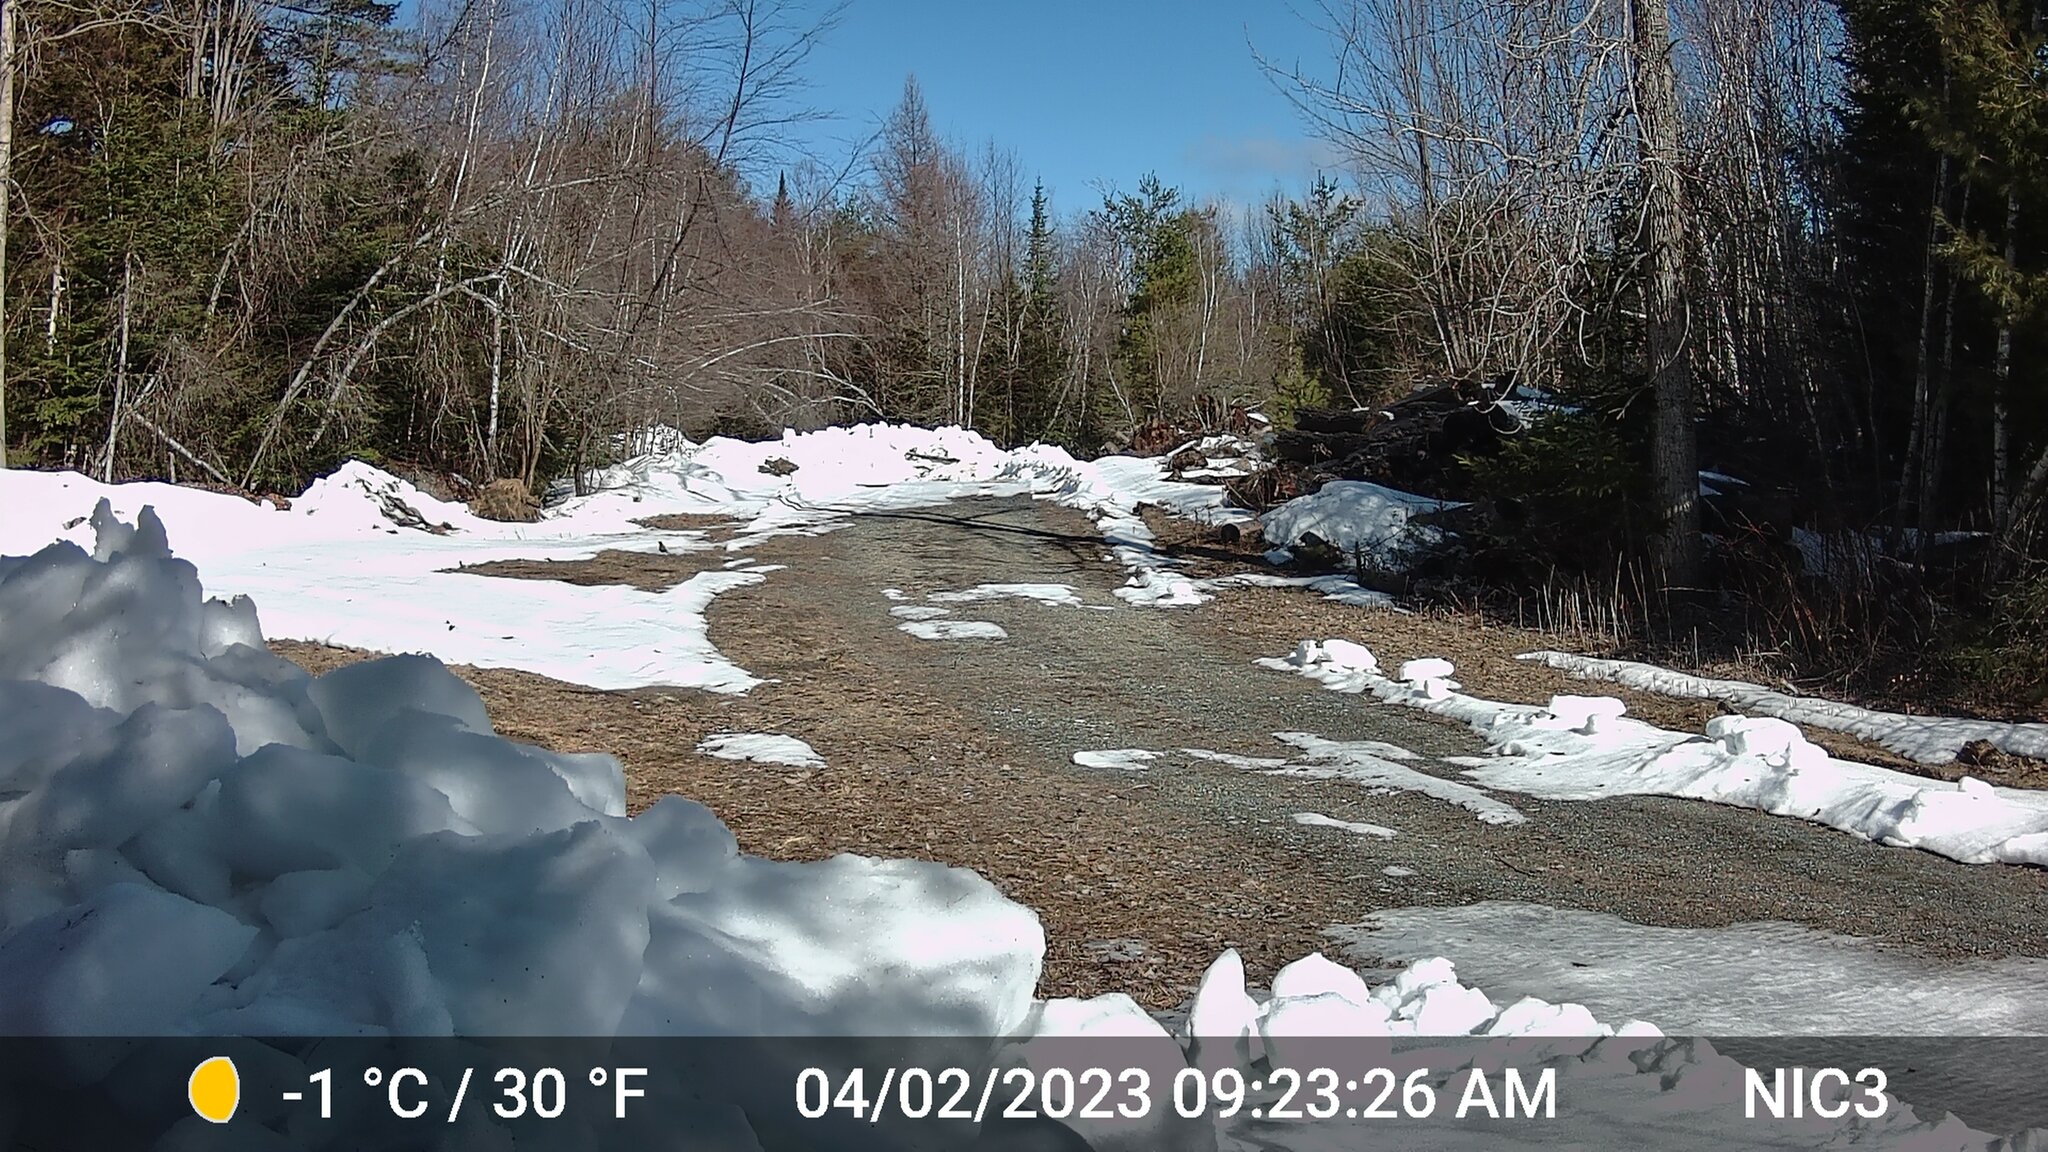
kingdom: Animalia
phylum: Chordata
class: Aves
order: Passeriformes
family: Turdidae
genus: Turdus
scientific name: Turdus migratorius
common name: American robin
